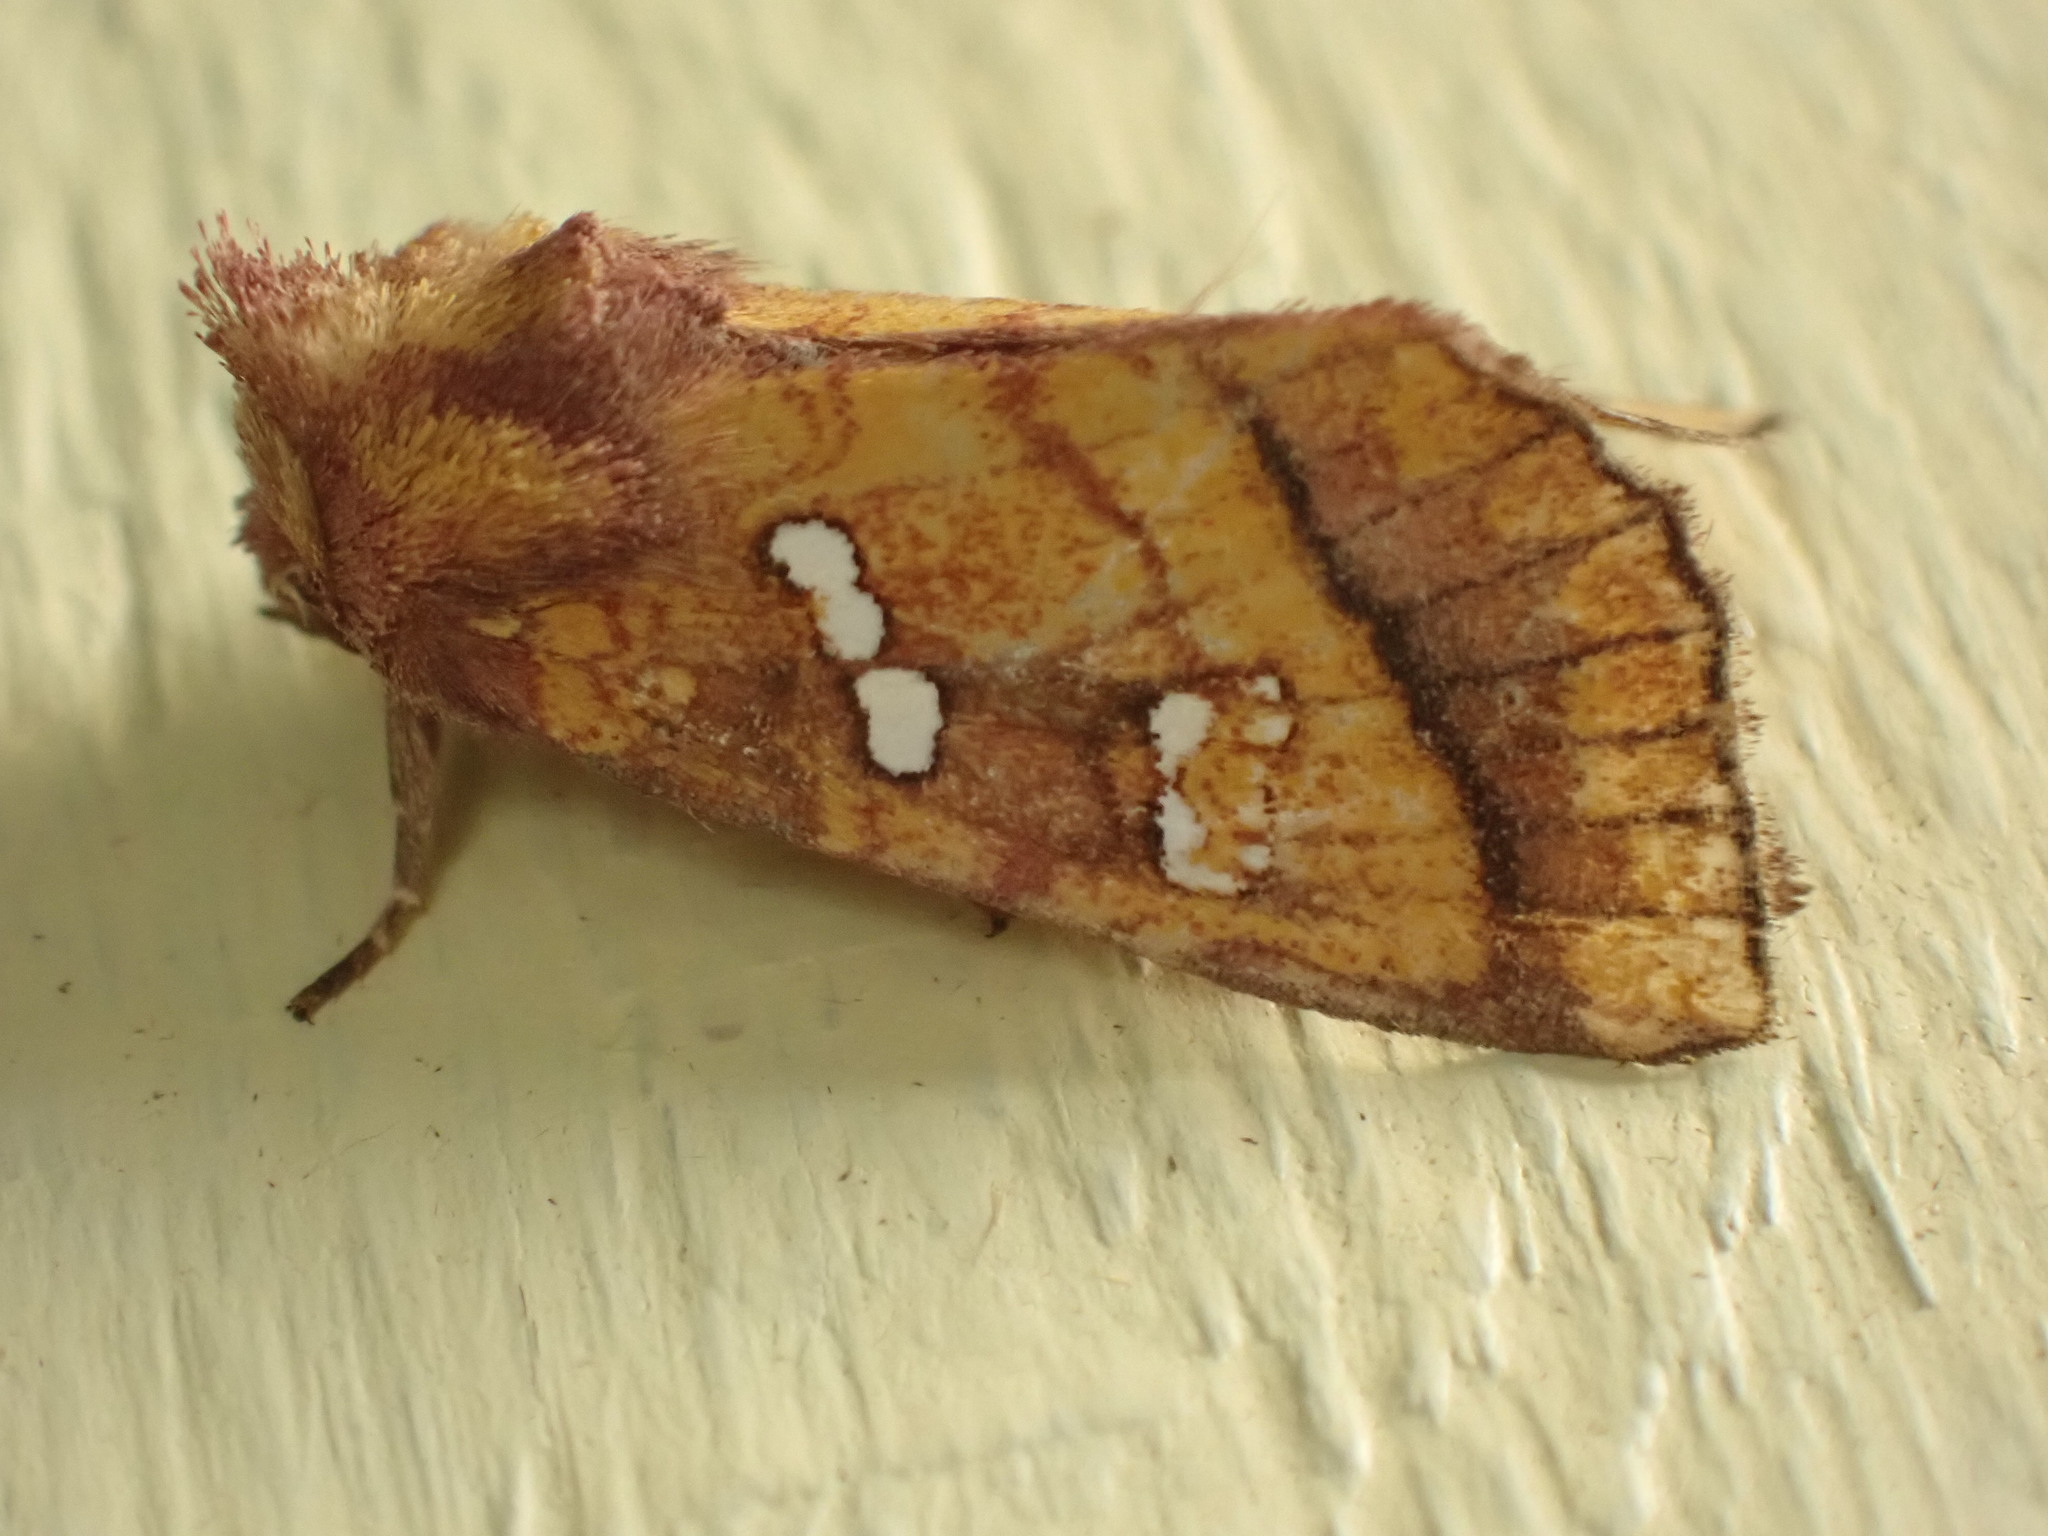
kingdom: Animalia
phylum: Arthropoda
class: Insecta
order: Lepidoptera
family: Noctuidae
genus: Papaipema
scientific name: Papaipema pterisii
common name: Bracken borer moth
